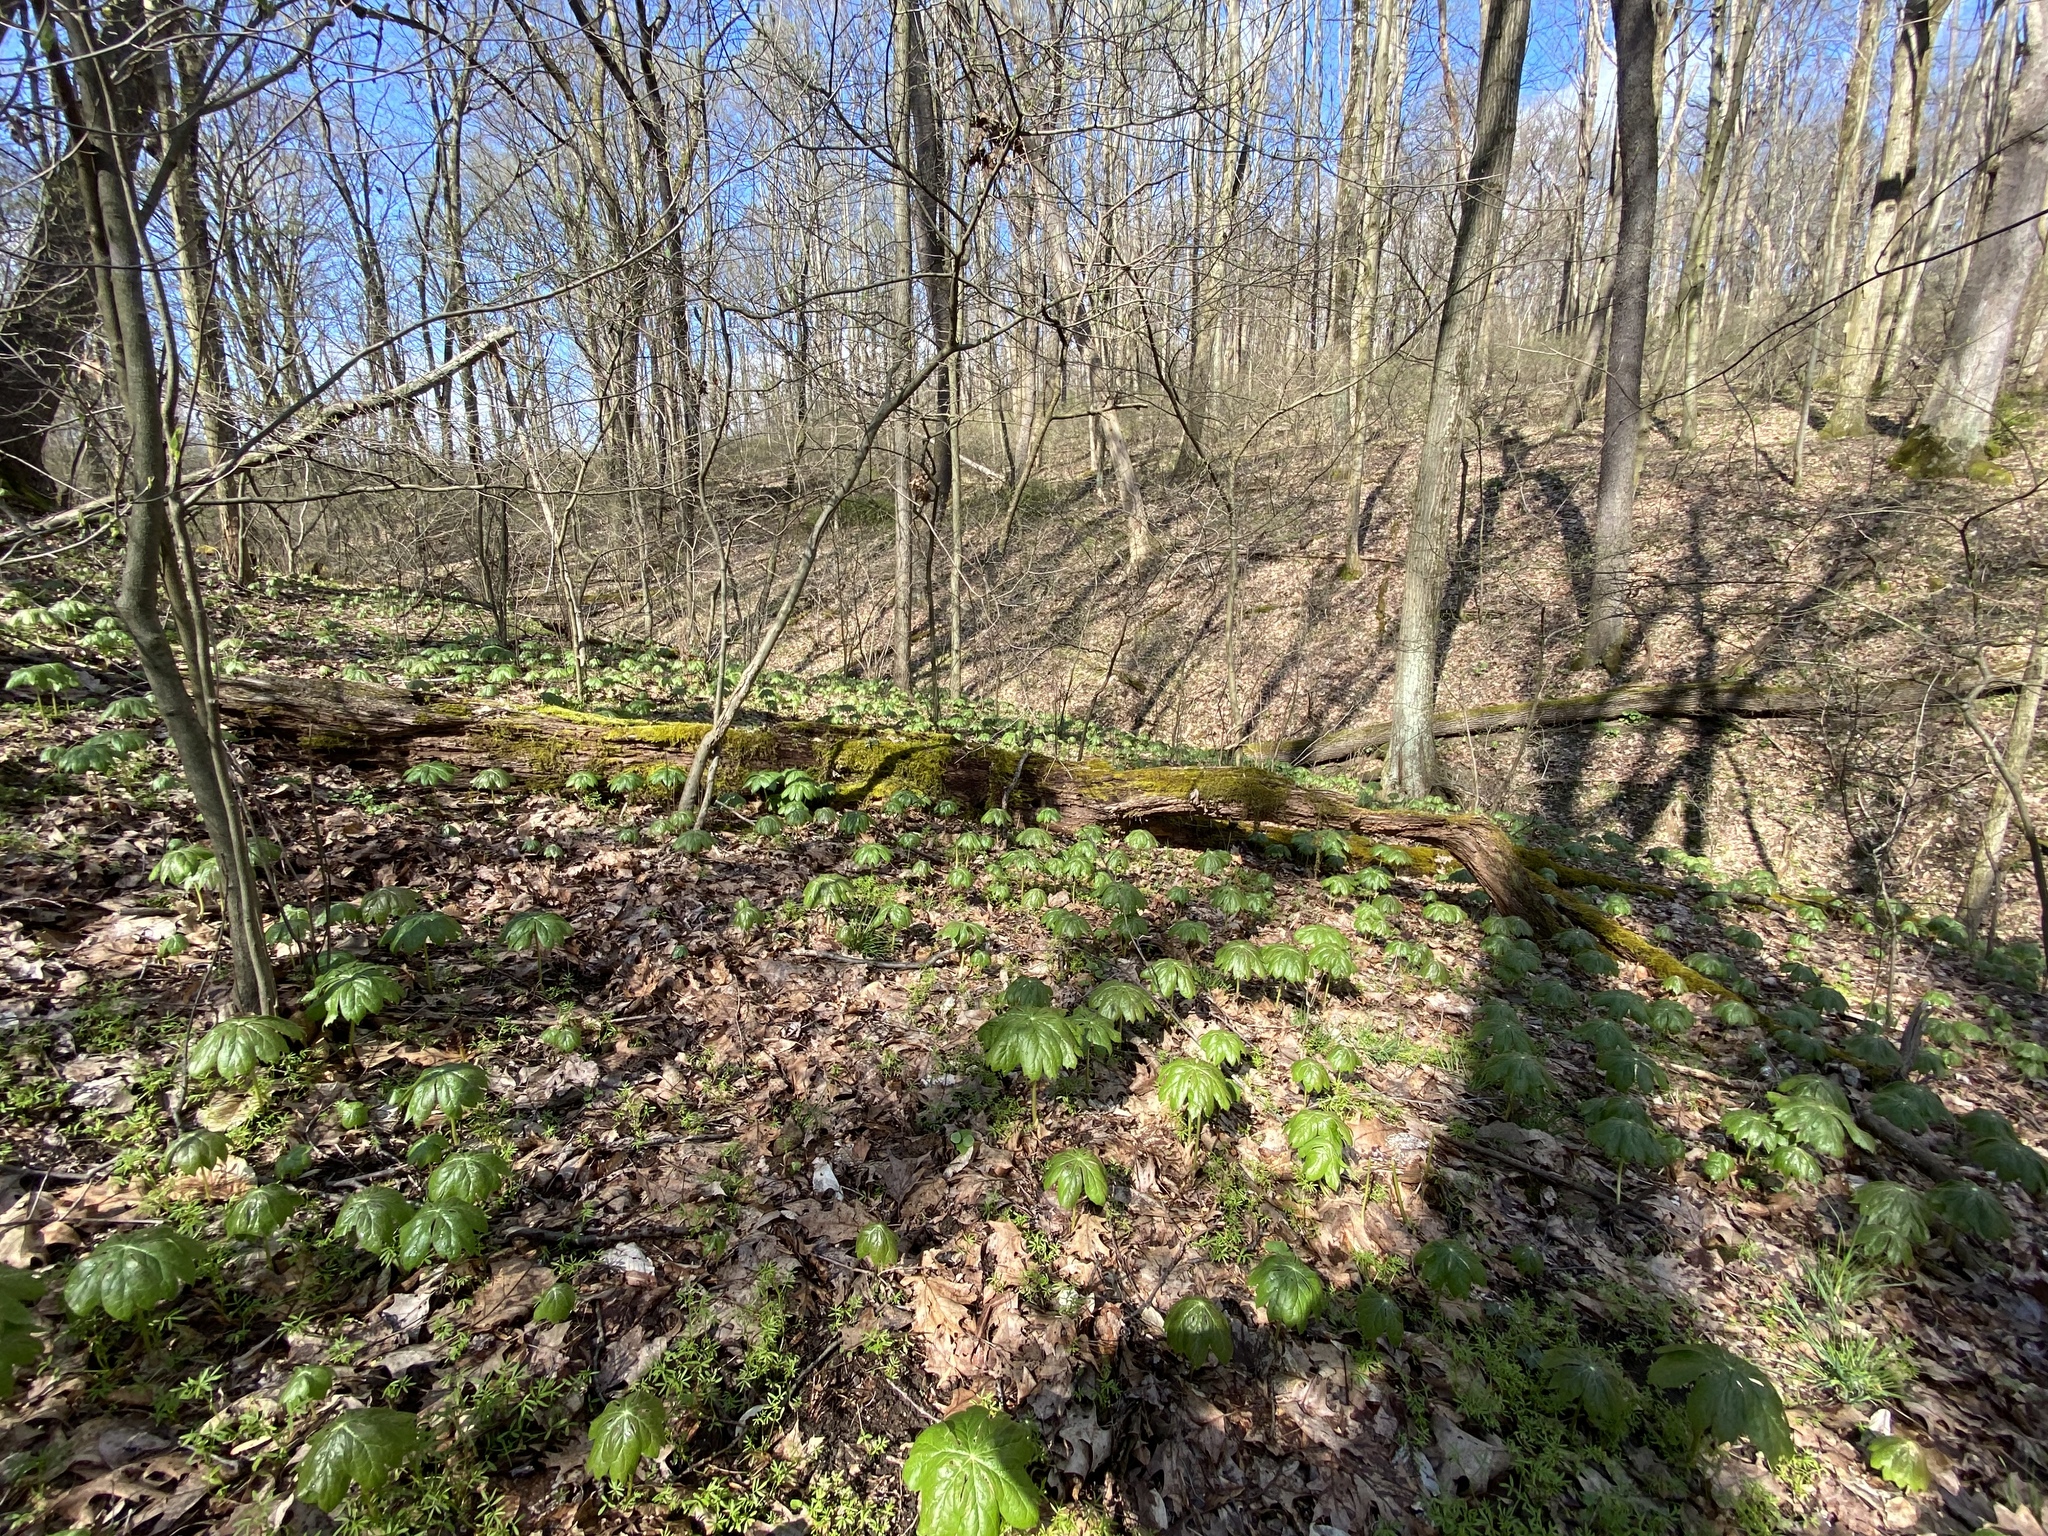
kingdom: Plantae
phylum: Tracheophyta
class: Magnoliopsida
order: Ranunculales
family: Berberidaceae
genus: Podophyllum
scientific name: Podophyllum peltatum
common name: Wild mandrake
